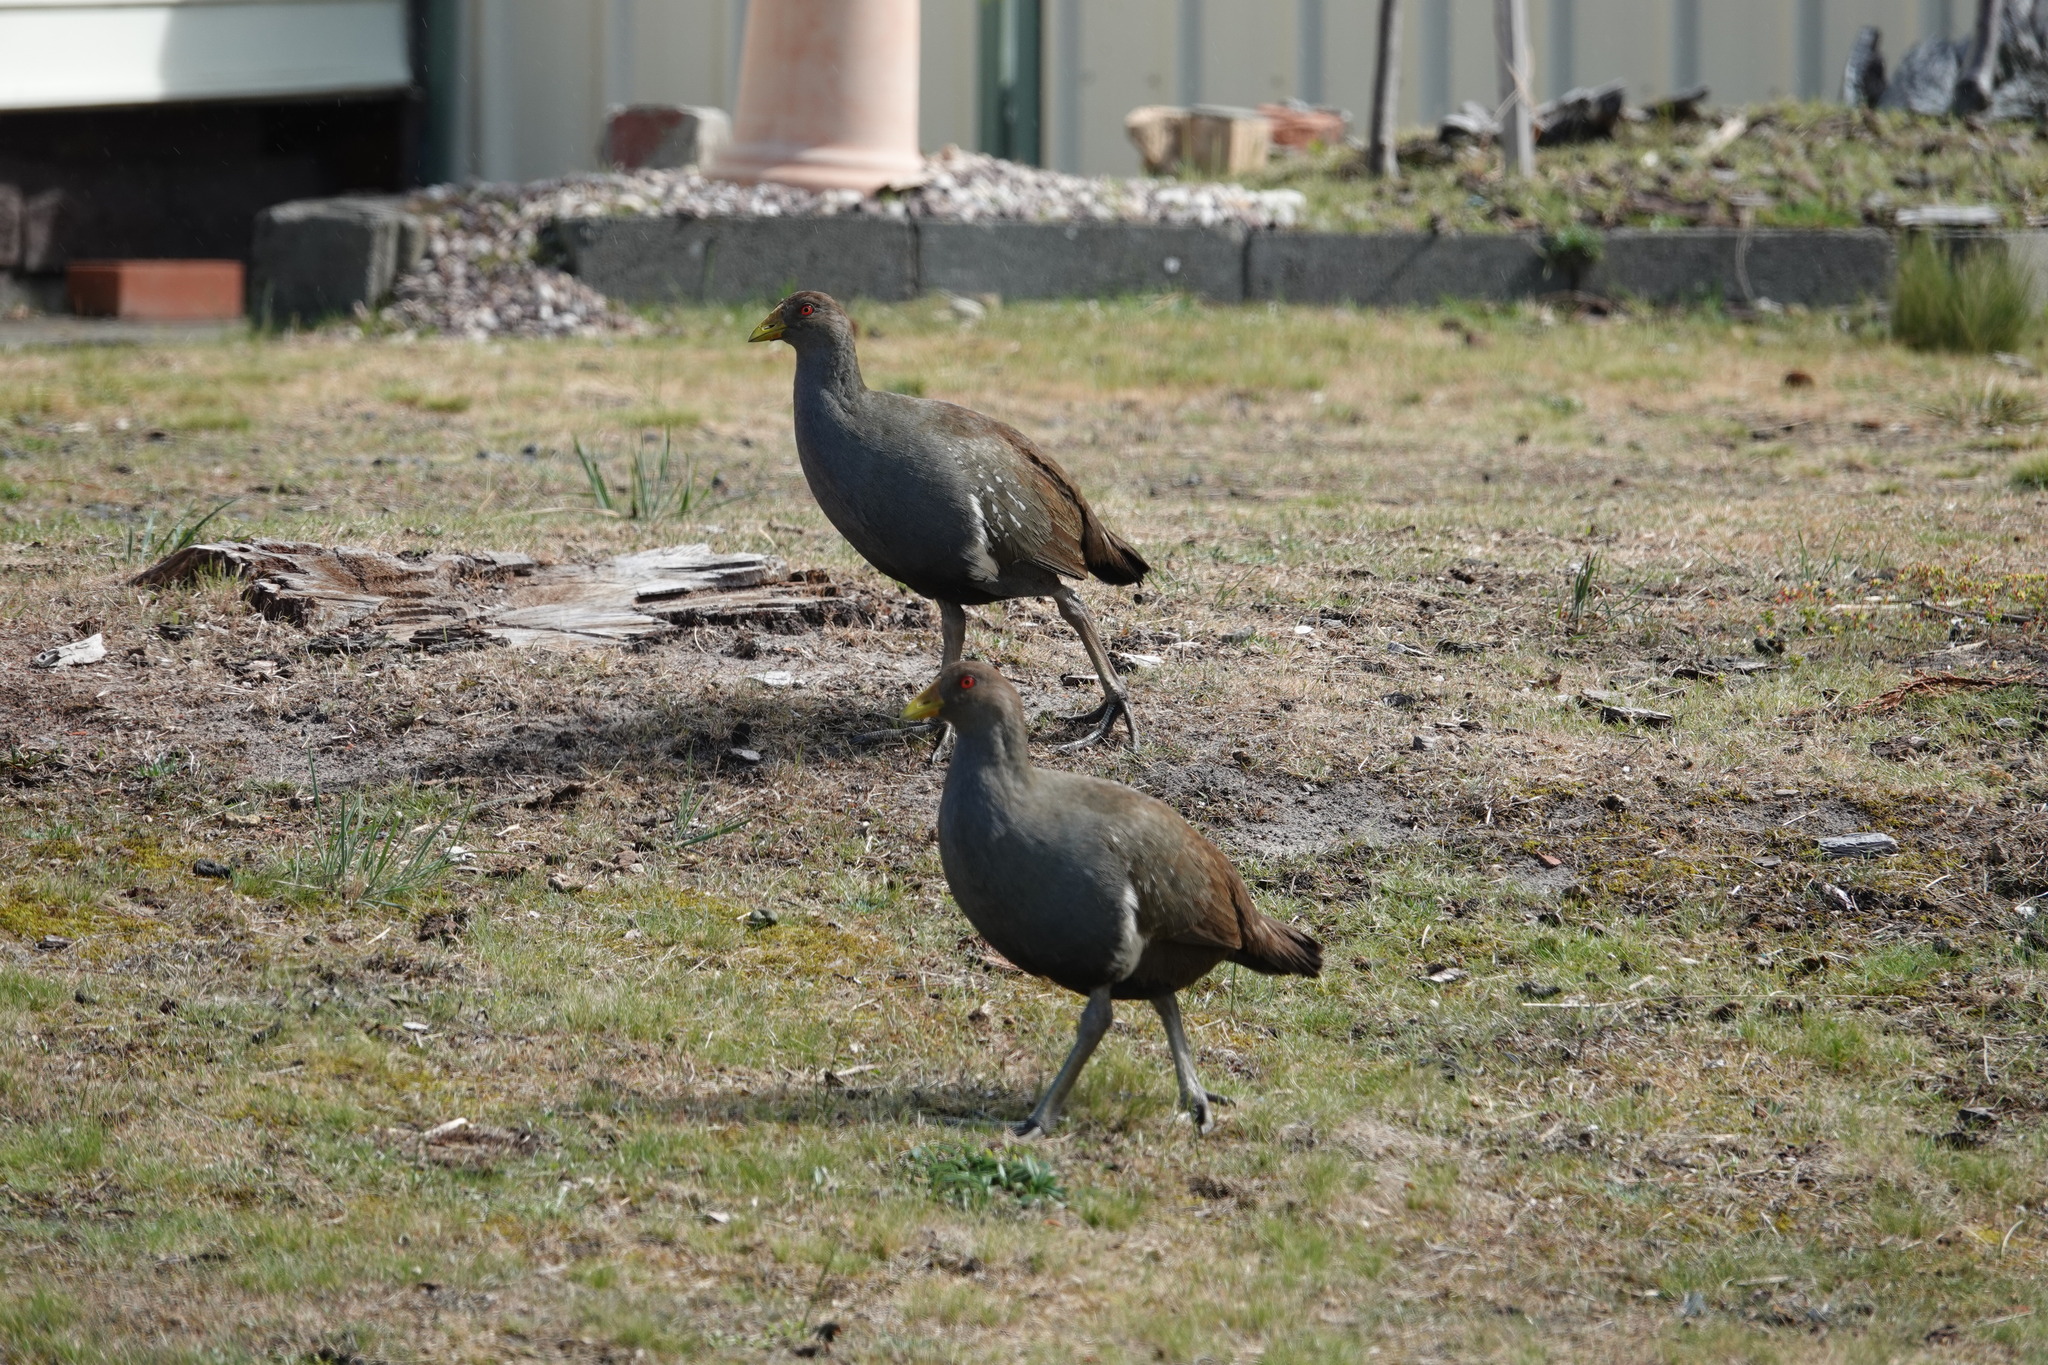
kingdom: Animalia
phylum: Chordata
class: Aves
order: Gruiformes
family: Rallidae
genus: Gallinula
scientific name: Gallinula mortierii
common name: Tasmanian nativehen
